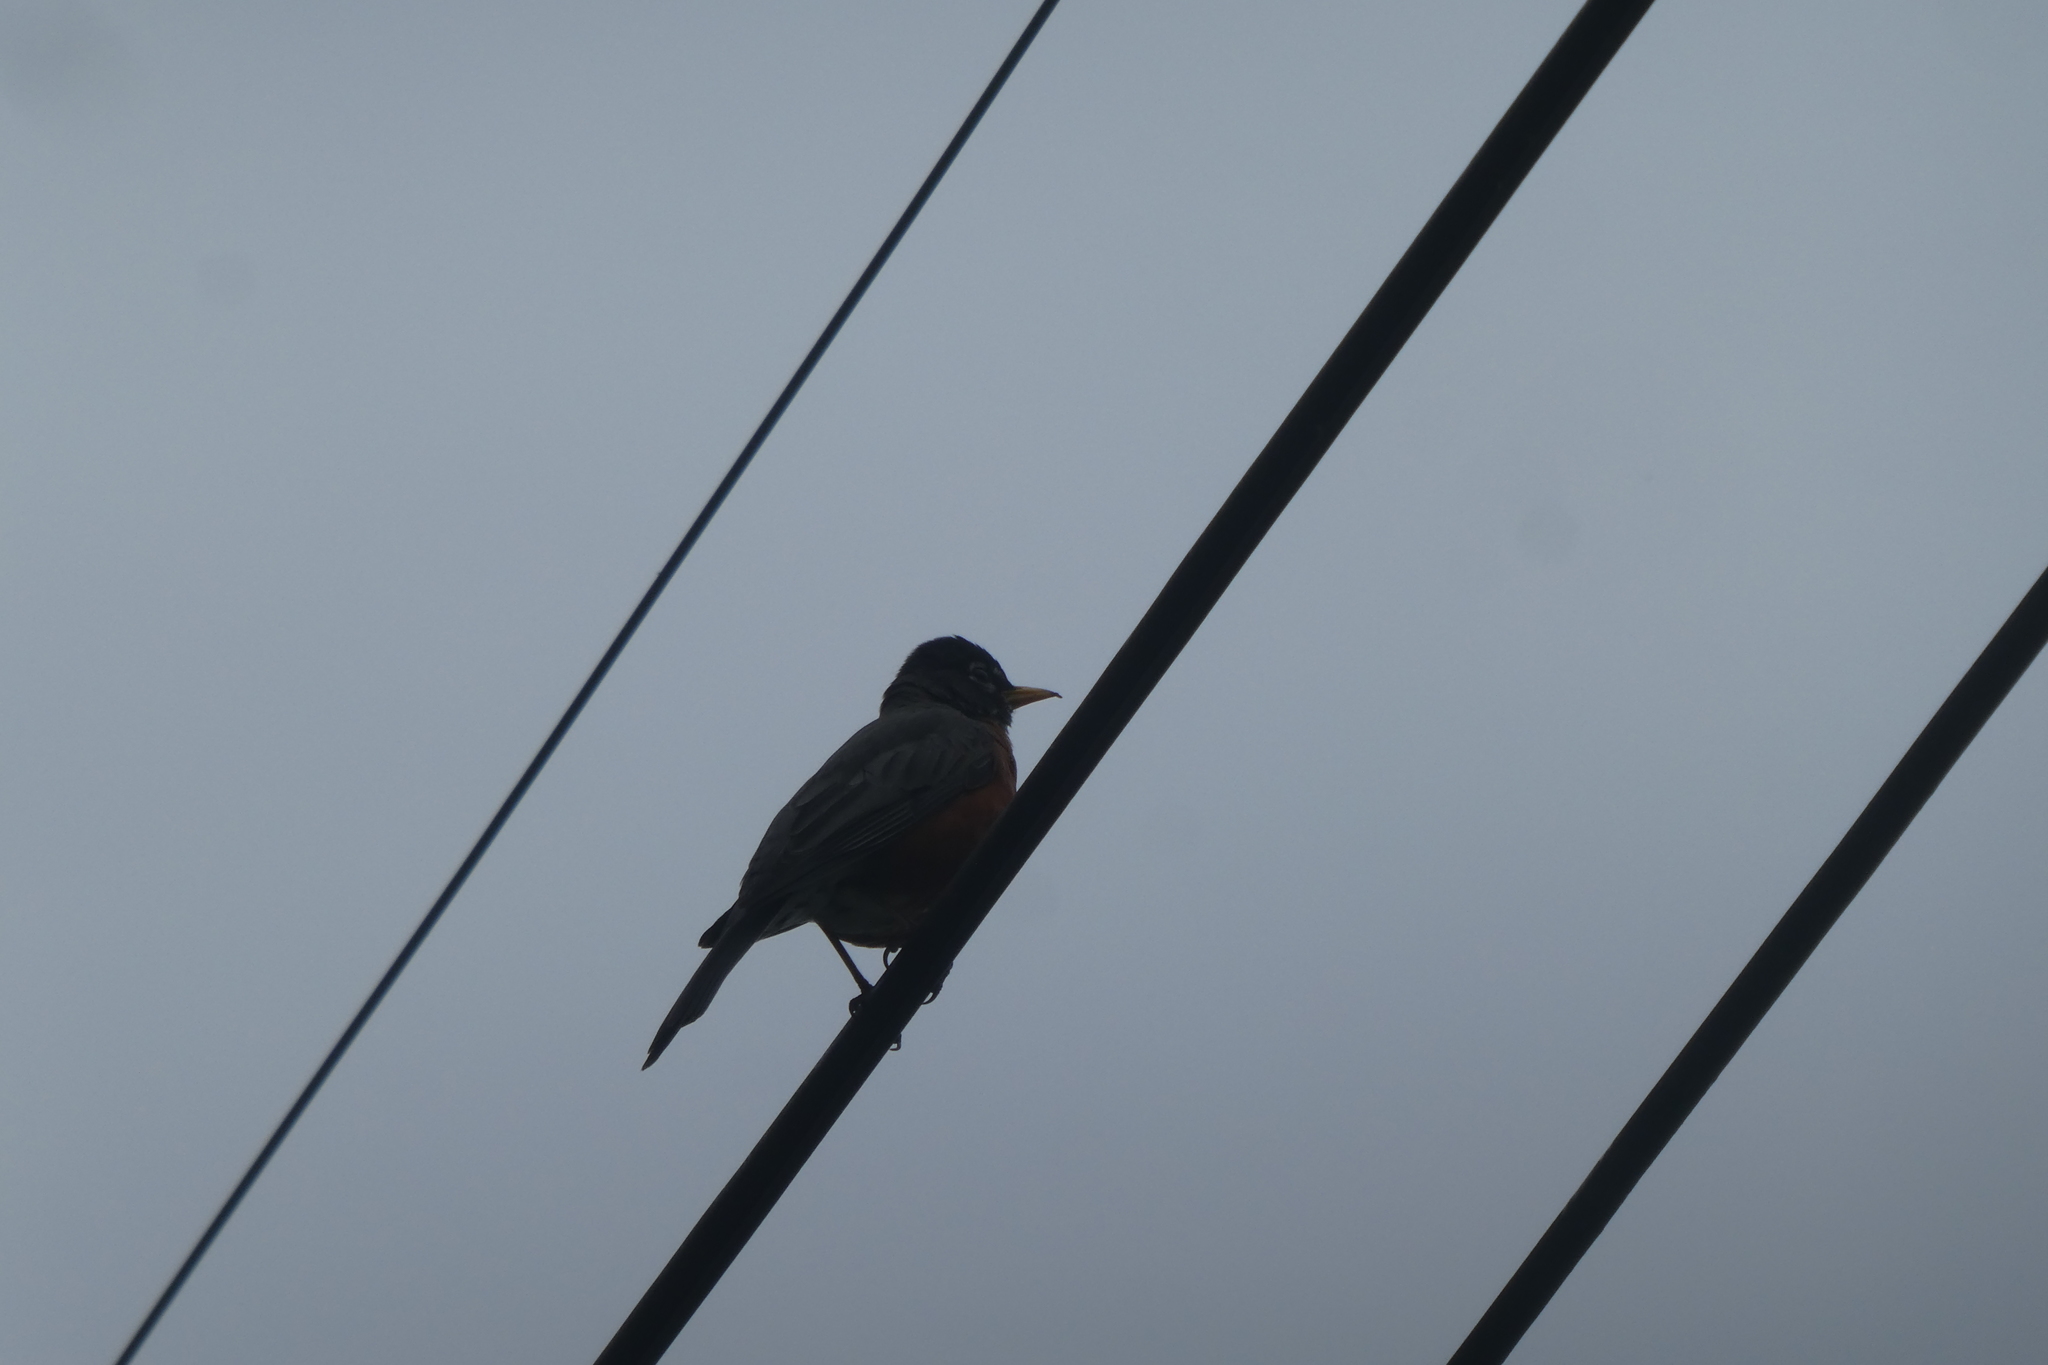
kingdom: Animalia
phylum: Chordata
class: Aves
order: Passeriformes
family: Turdidae
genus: Turdus
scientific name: Turdus migratorius
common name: American robin
